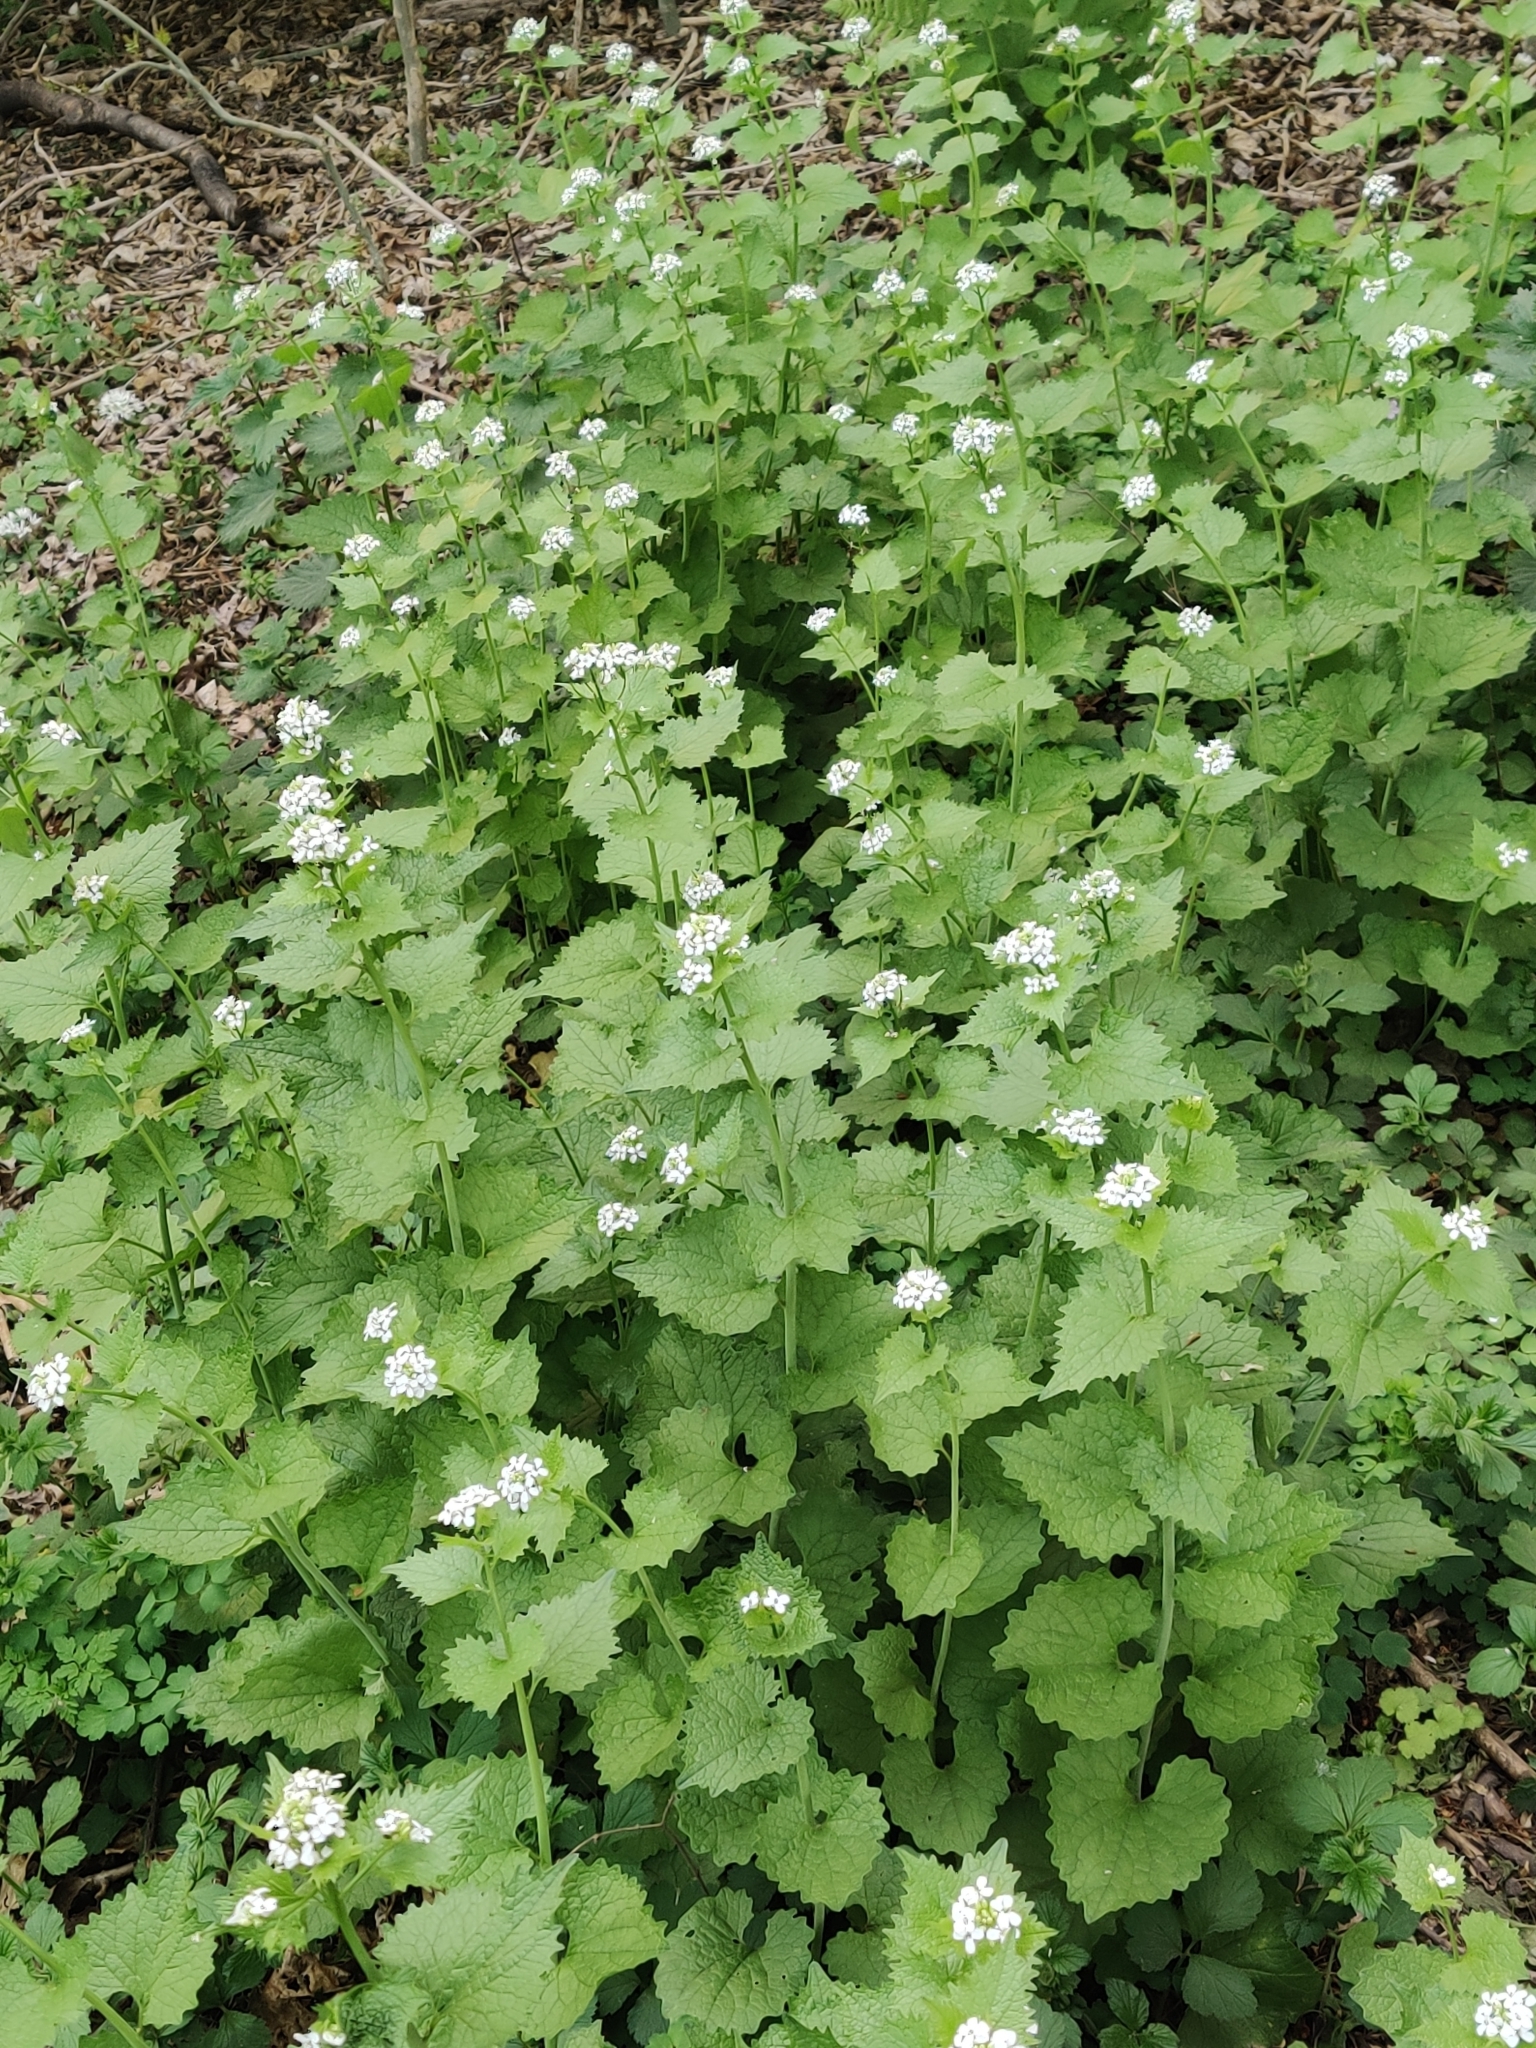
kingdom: Plantae
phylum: Tracheophyta
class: Magnoliopsida
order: Brassicales
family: Brassicaceae
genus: Alliaria
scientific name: Alliaria petiolata
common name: Garlic mustard
